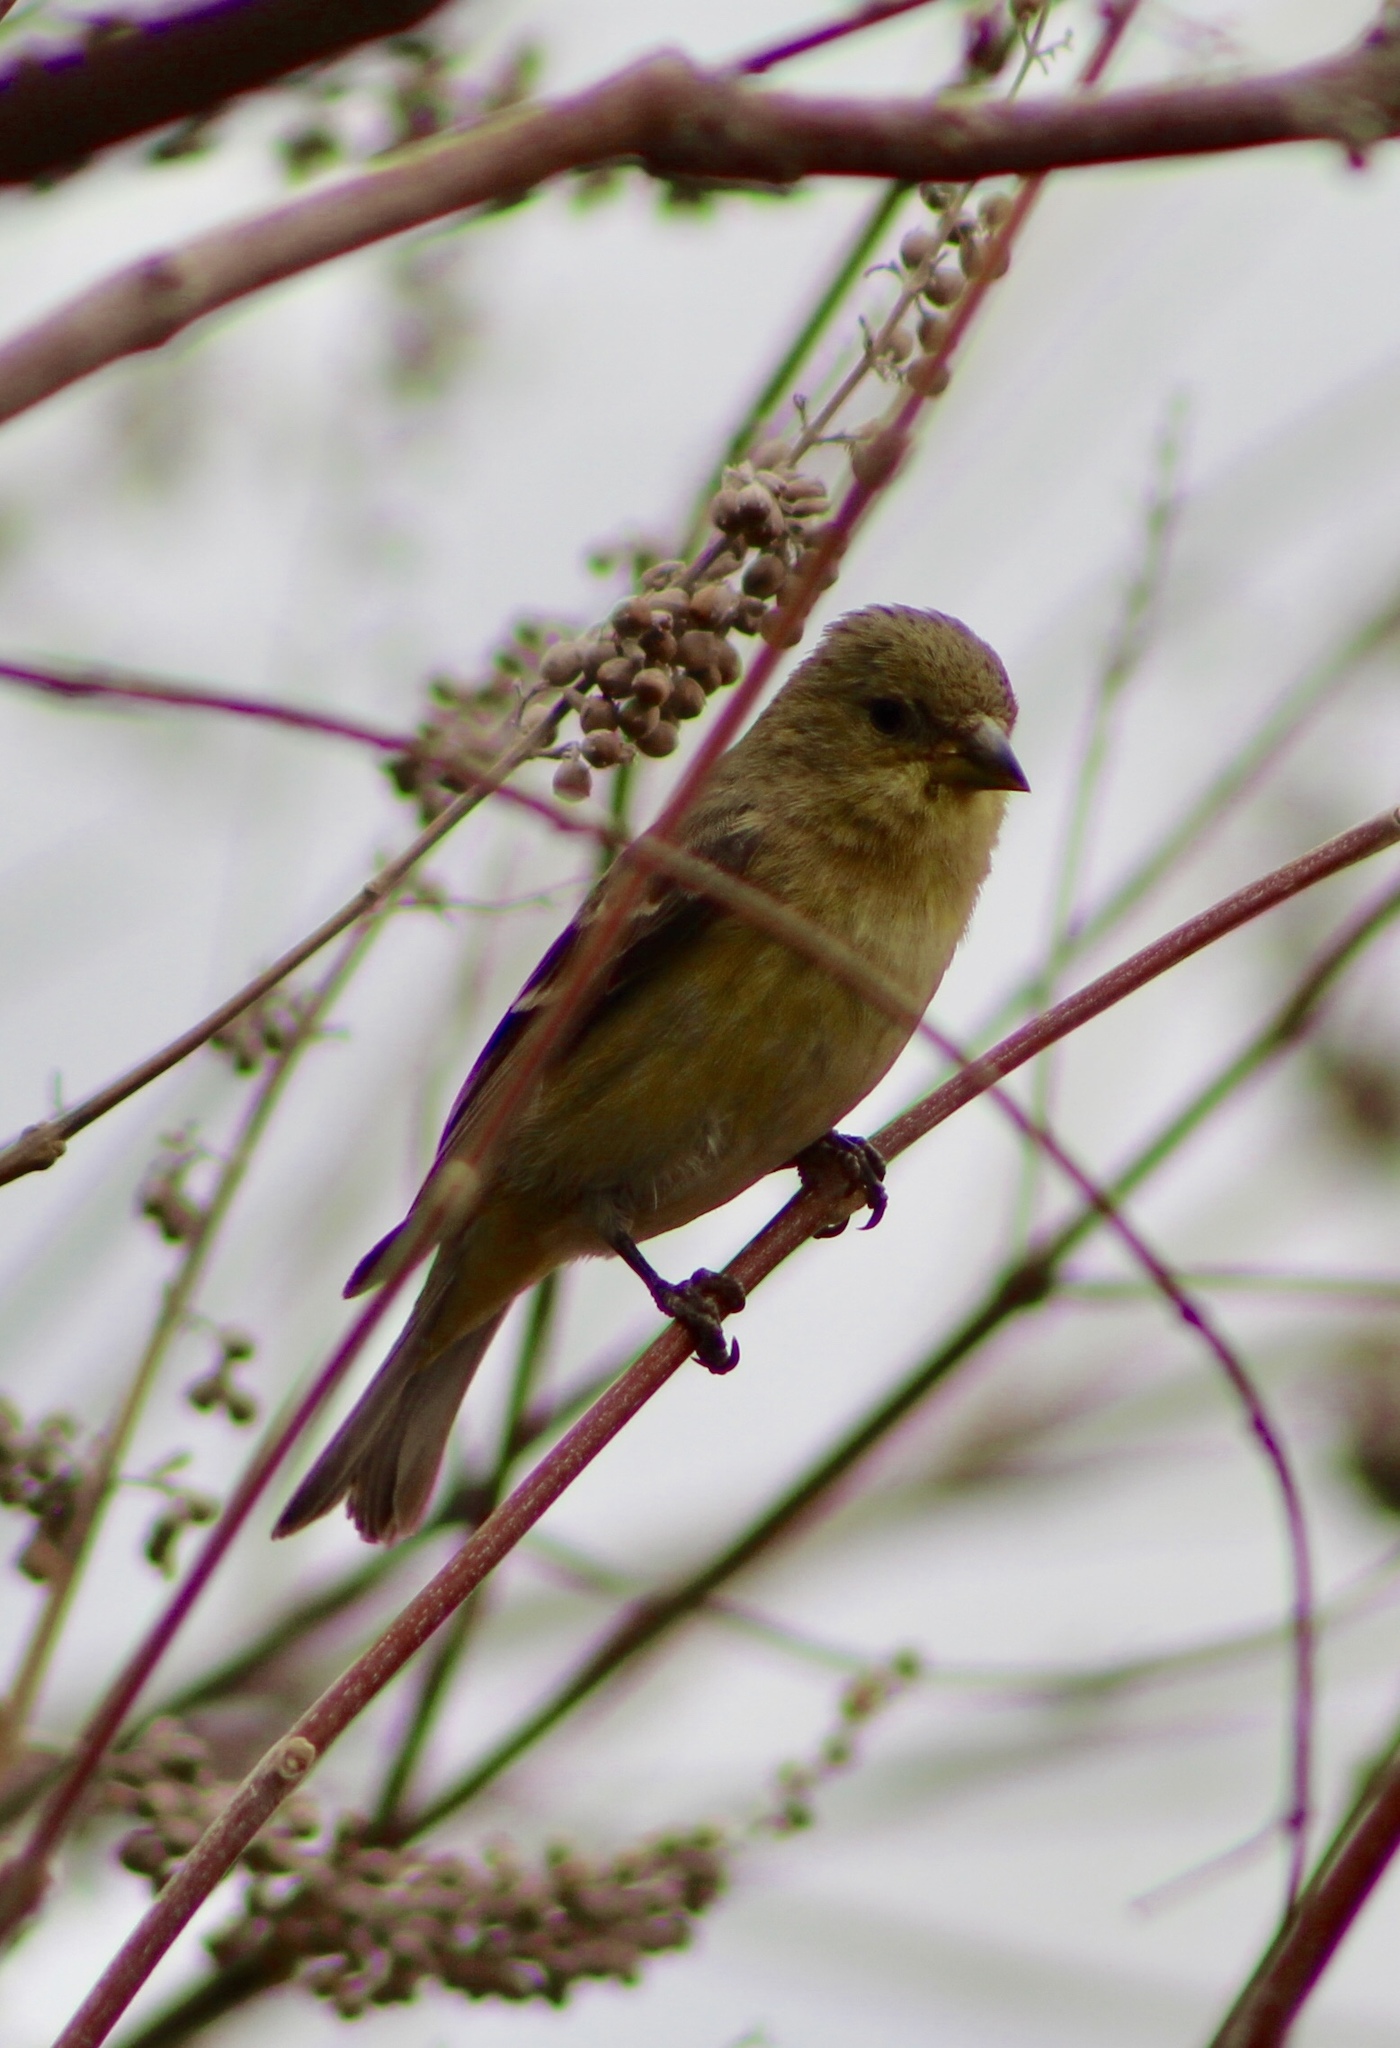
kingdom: Animalia
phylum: Chordata
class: Aves
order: Passeriformes
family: Fringillidae
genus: Spinus
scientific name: Spinus psaltria
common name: Lesser goldfinch
